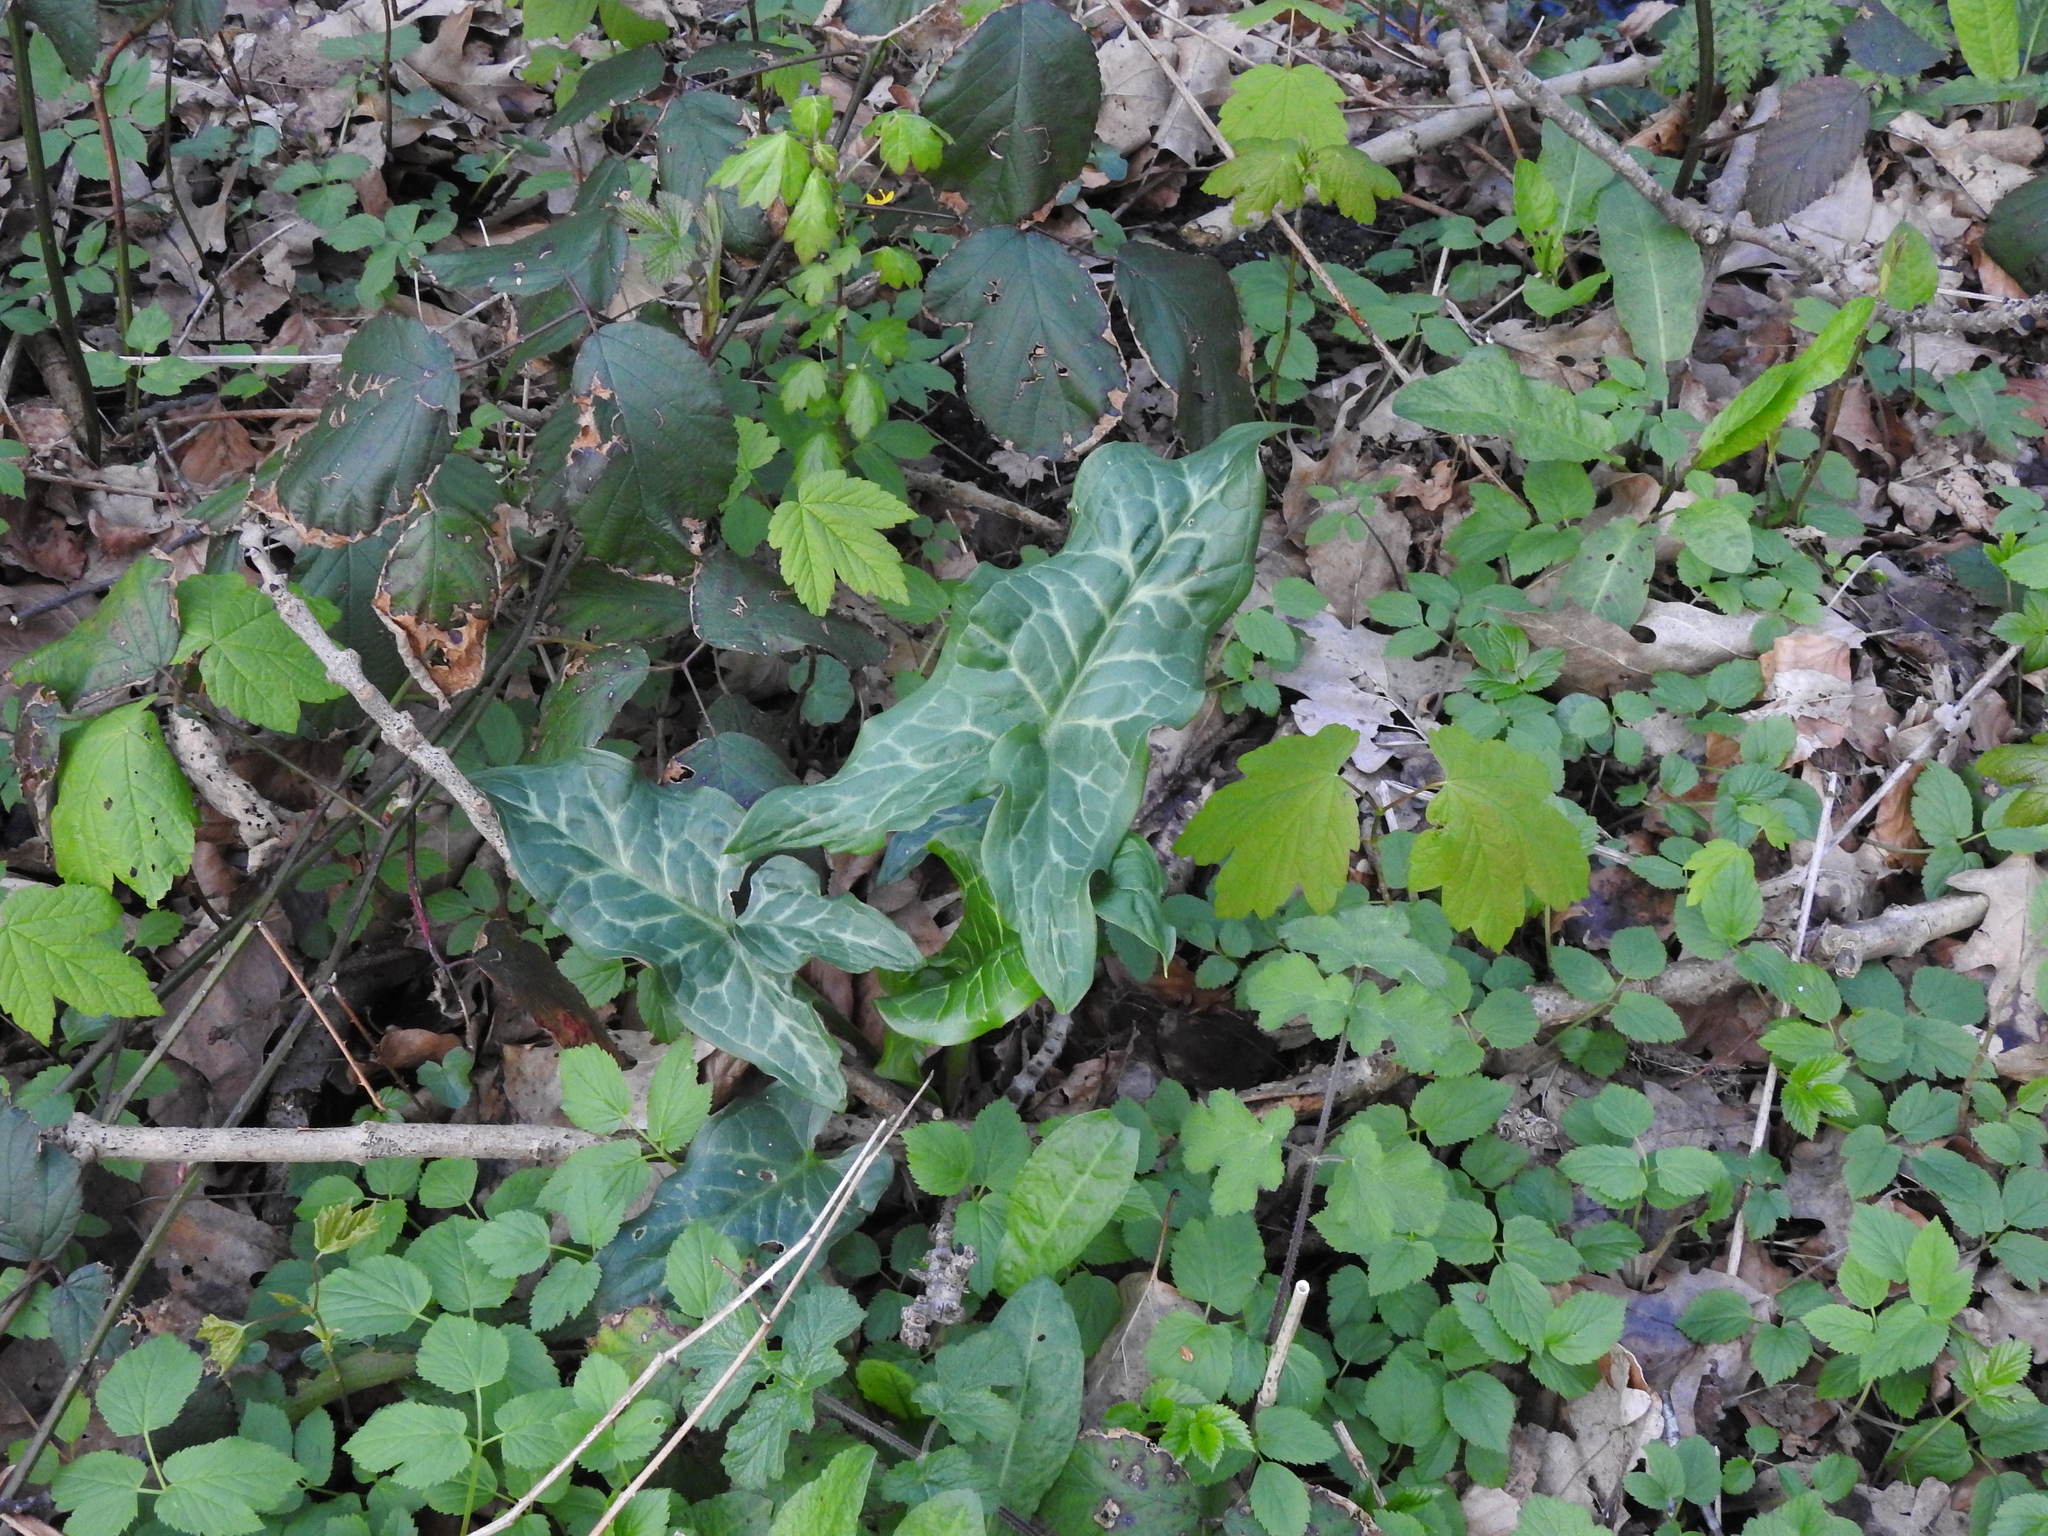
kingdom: Plantae
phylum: Tracheophyta
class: Liliopsida
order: Alismatales
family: Araceae
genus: Arum
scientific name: Arum italicum
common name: Italian lords-and-ladies
